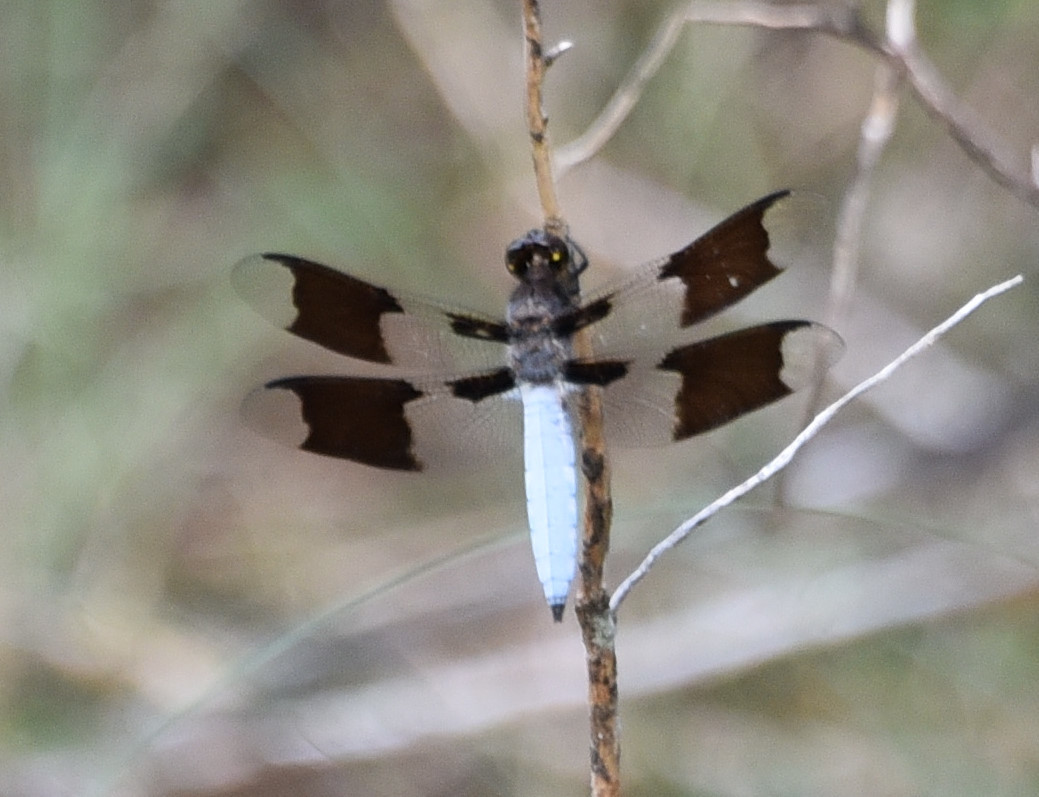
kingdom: Animalia
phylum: Arthropoda
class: Insecta
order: Odonata
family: Libellulidae
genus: Plathemis
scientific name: Plathemis lydia
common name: Common whitetail
